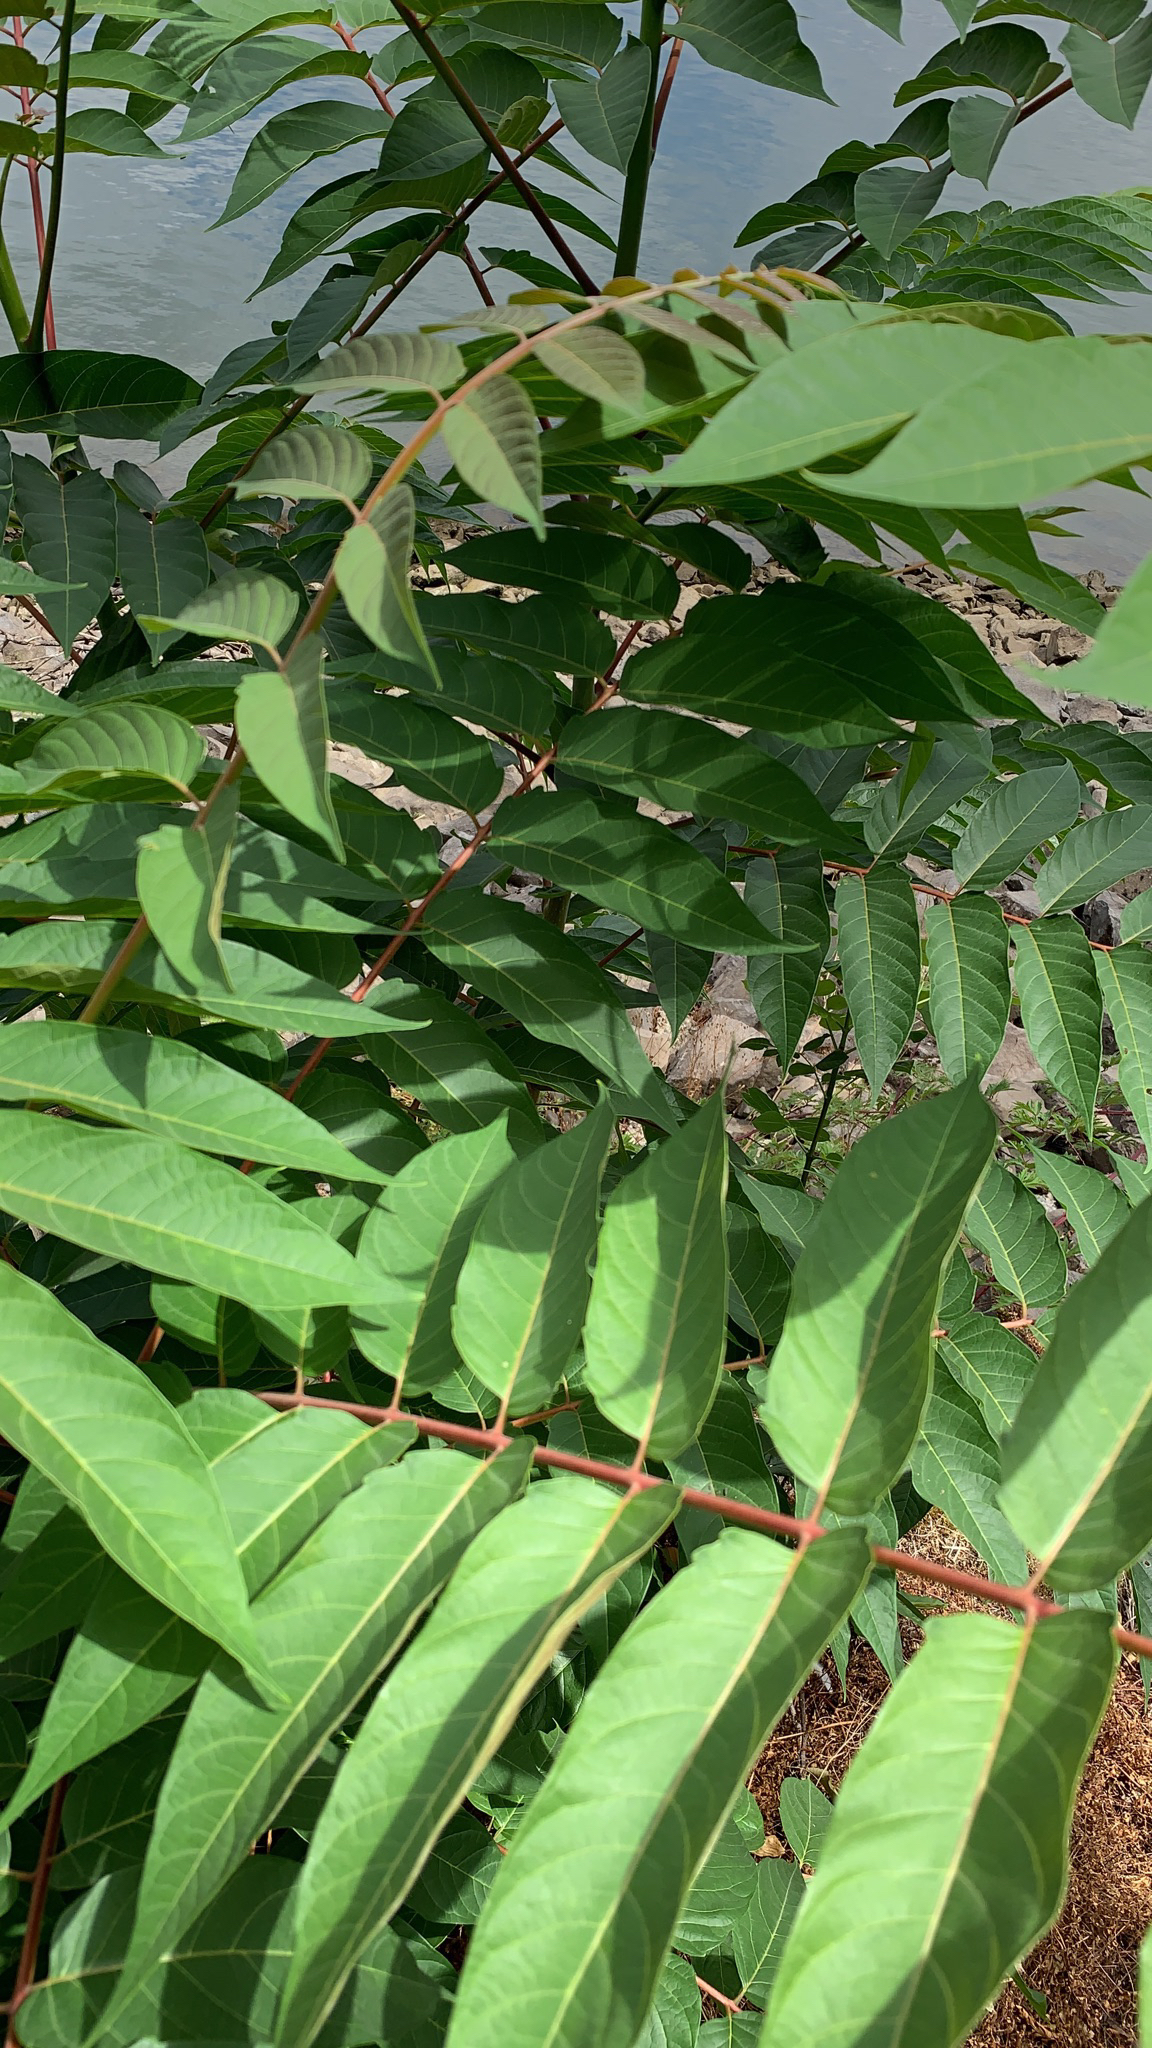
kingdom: Plantae
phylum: Tracheophyta
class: Magnoliopsida
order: Sapindales
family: Simaroubaceae
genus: Ailanthus
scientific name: Ailanthus altissima
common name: Tree-of-heaven
